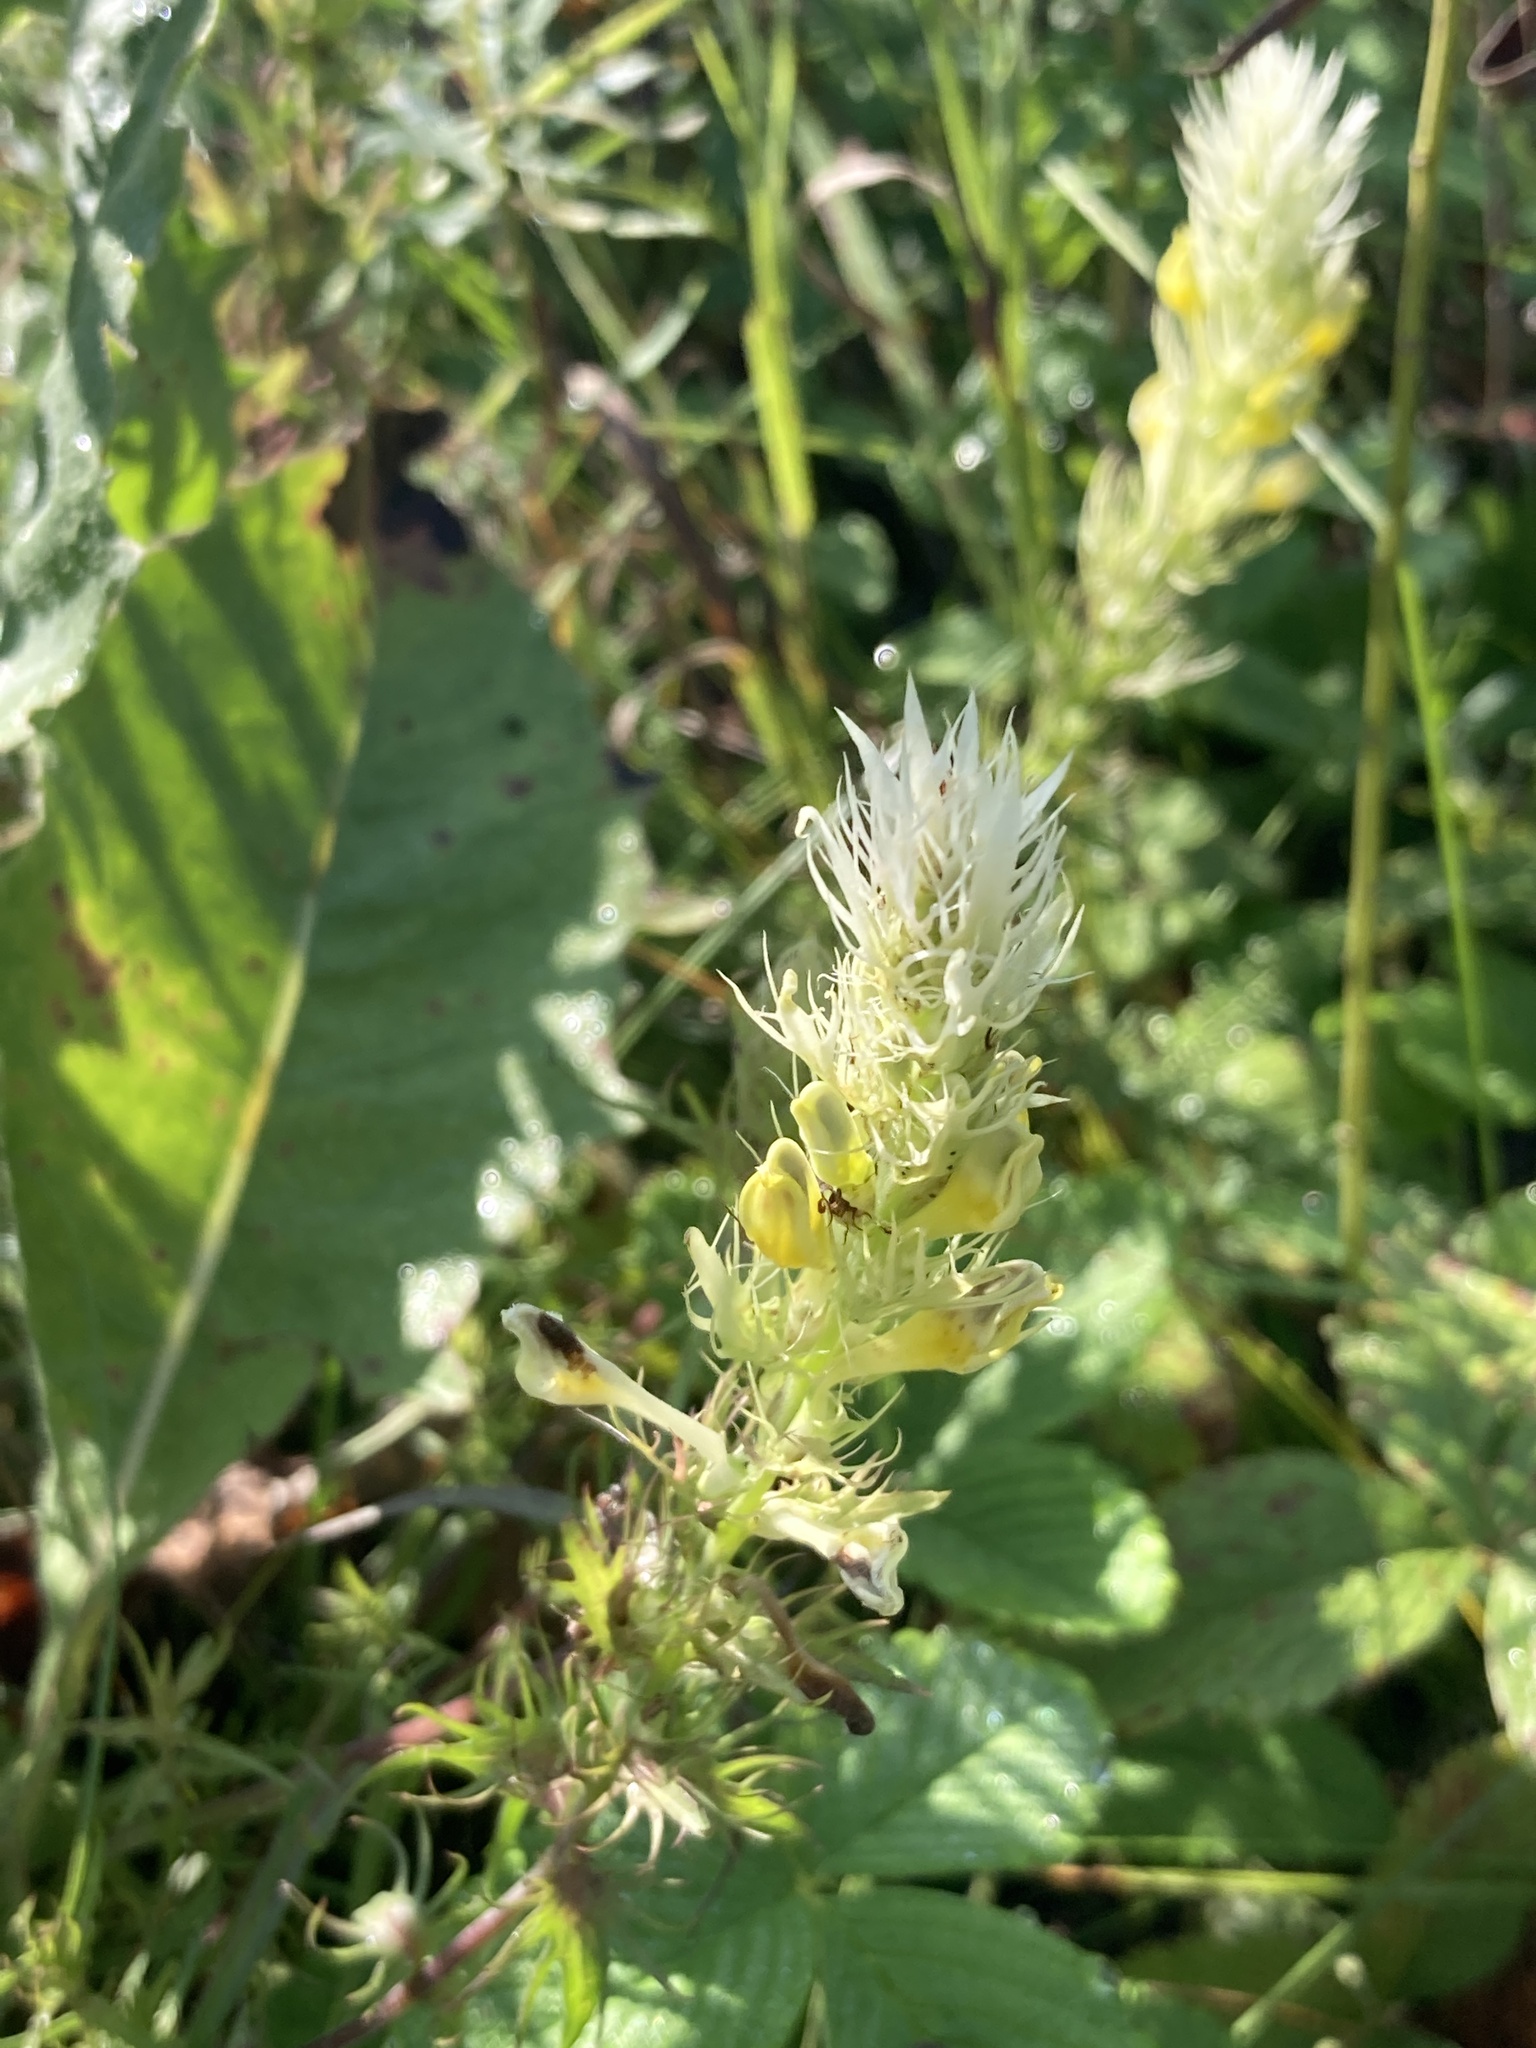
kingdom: Plantae
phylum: Tracheophyta
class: Magnoliopsida
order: Lamiales
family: Orobanchaceae
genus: Melampyrum
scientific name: Melampyrum arvense
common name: Field cow-wheat
